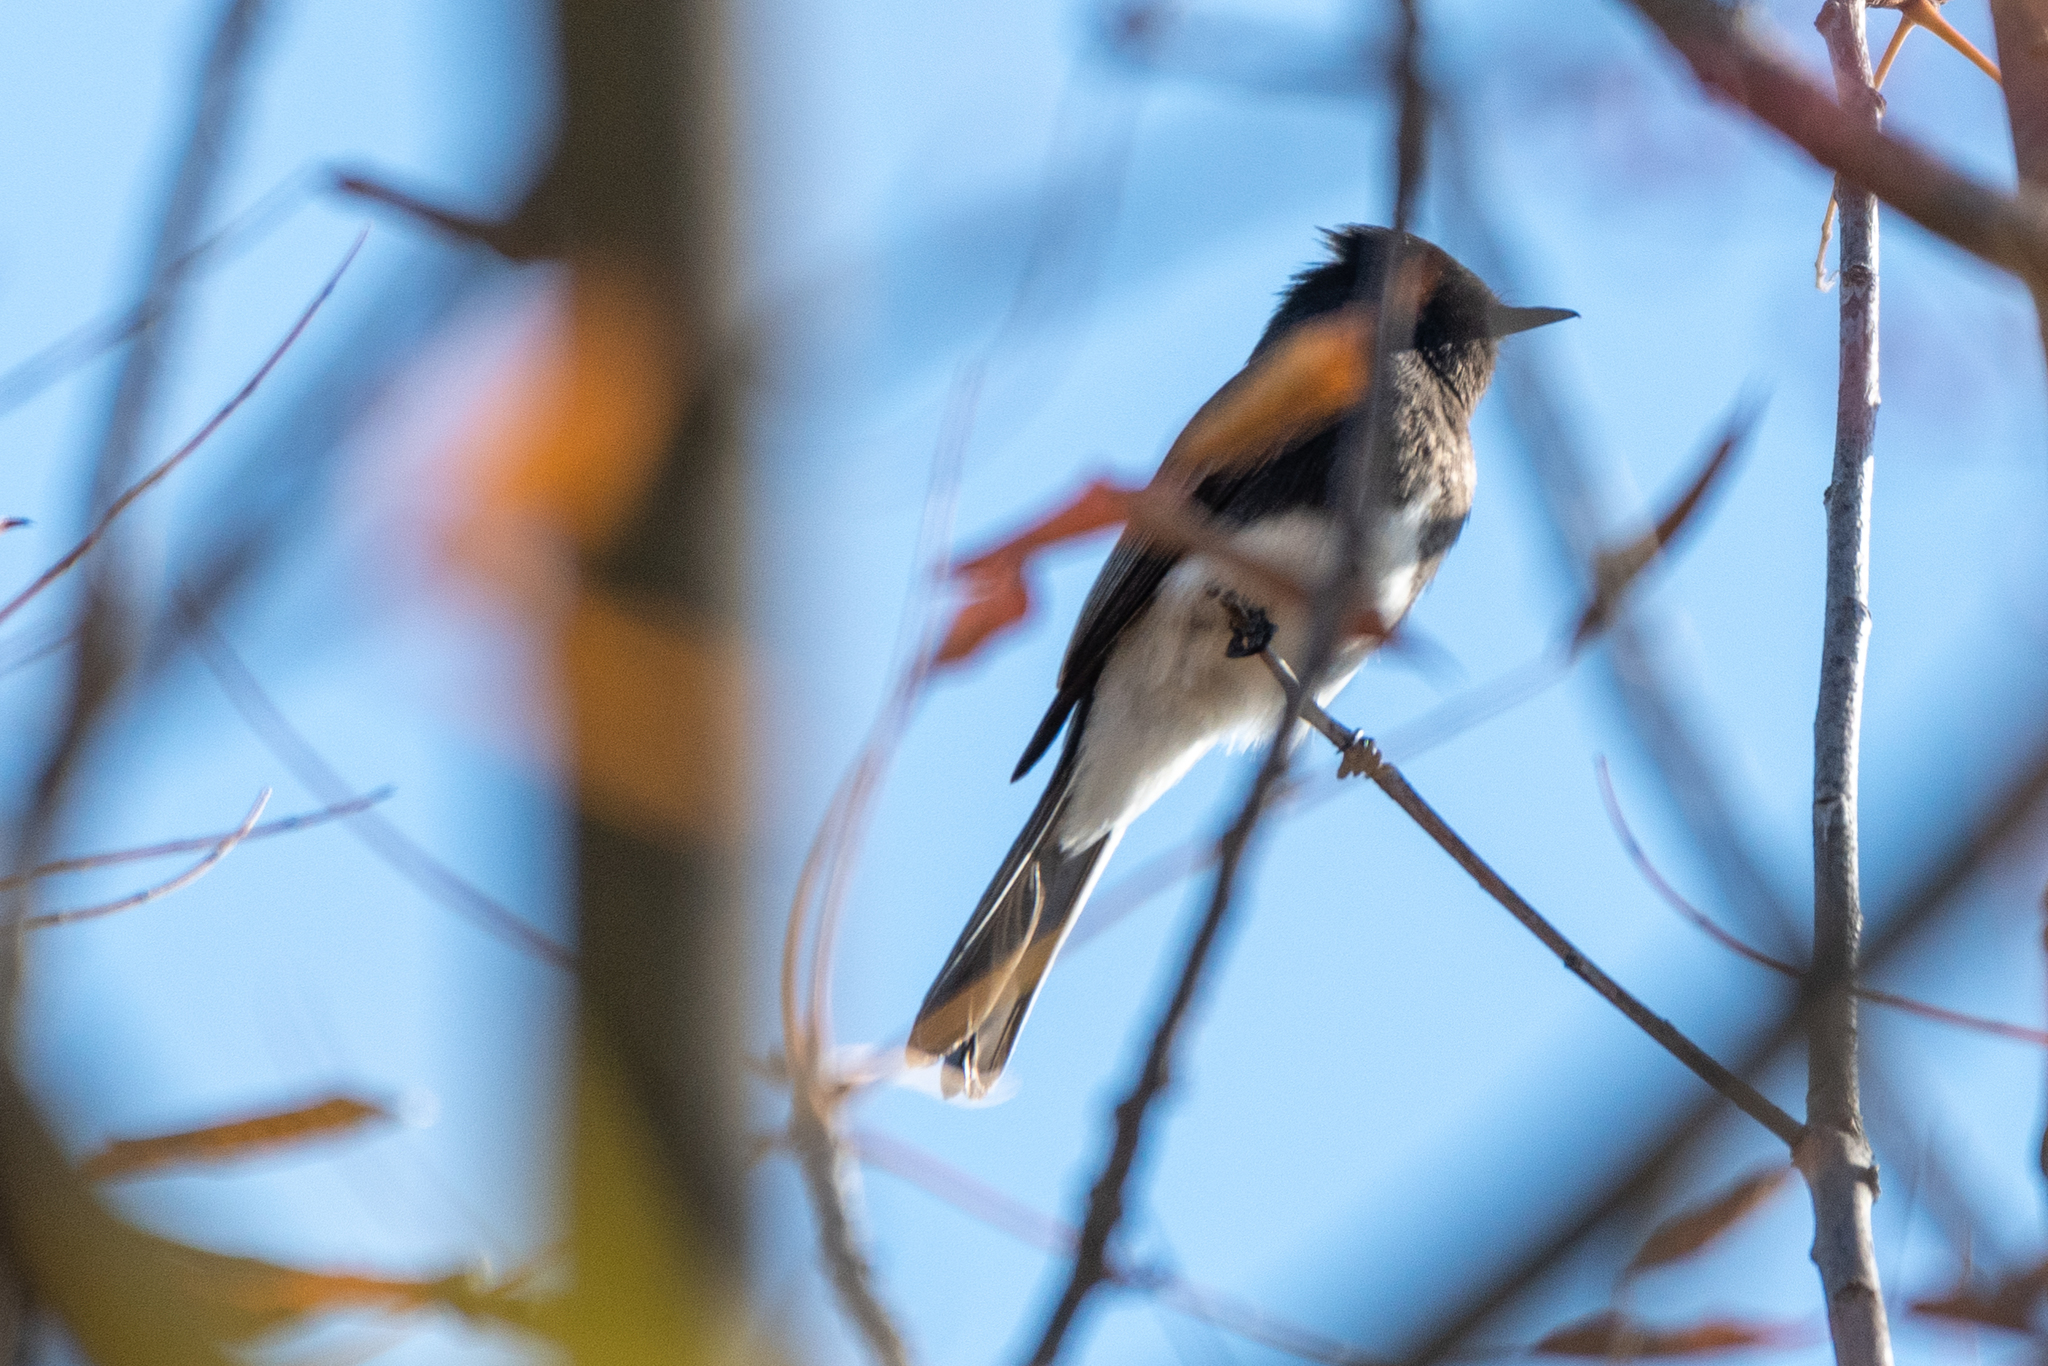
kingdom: Animalia
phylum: Chordata
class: Aves
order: Passeriformes
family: Tyrannidae
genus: Sayornis
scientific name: Sayornis nigricans
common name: Black phoebe
